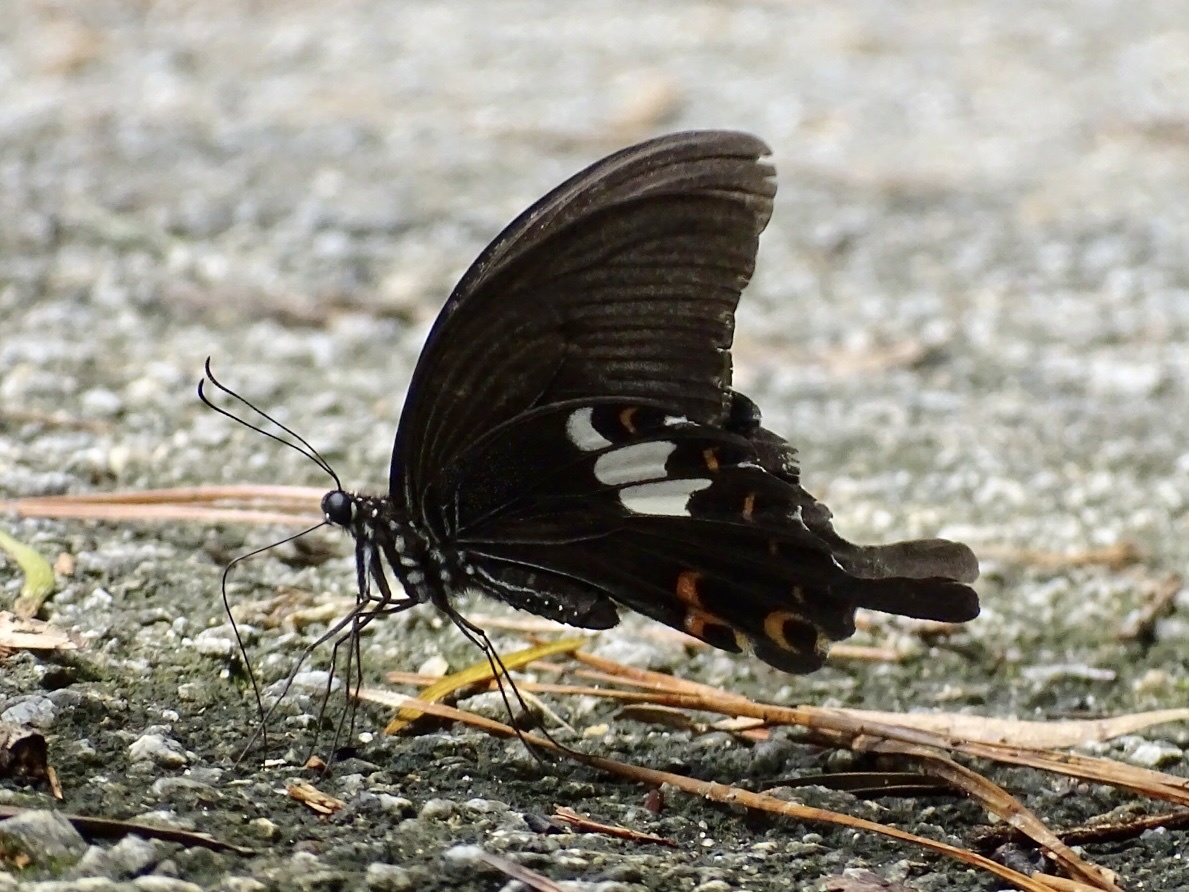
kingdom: Animalia
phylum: Arthropoda
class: Insecta
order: Lepidoptera
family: Papilionidae
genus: Papilio
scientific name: Papilio helenus
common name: Red helen
